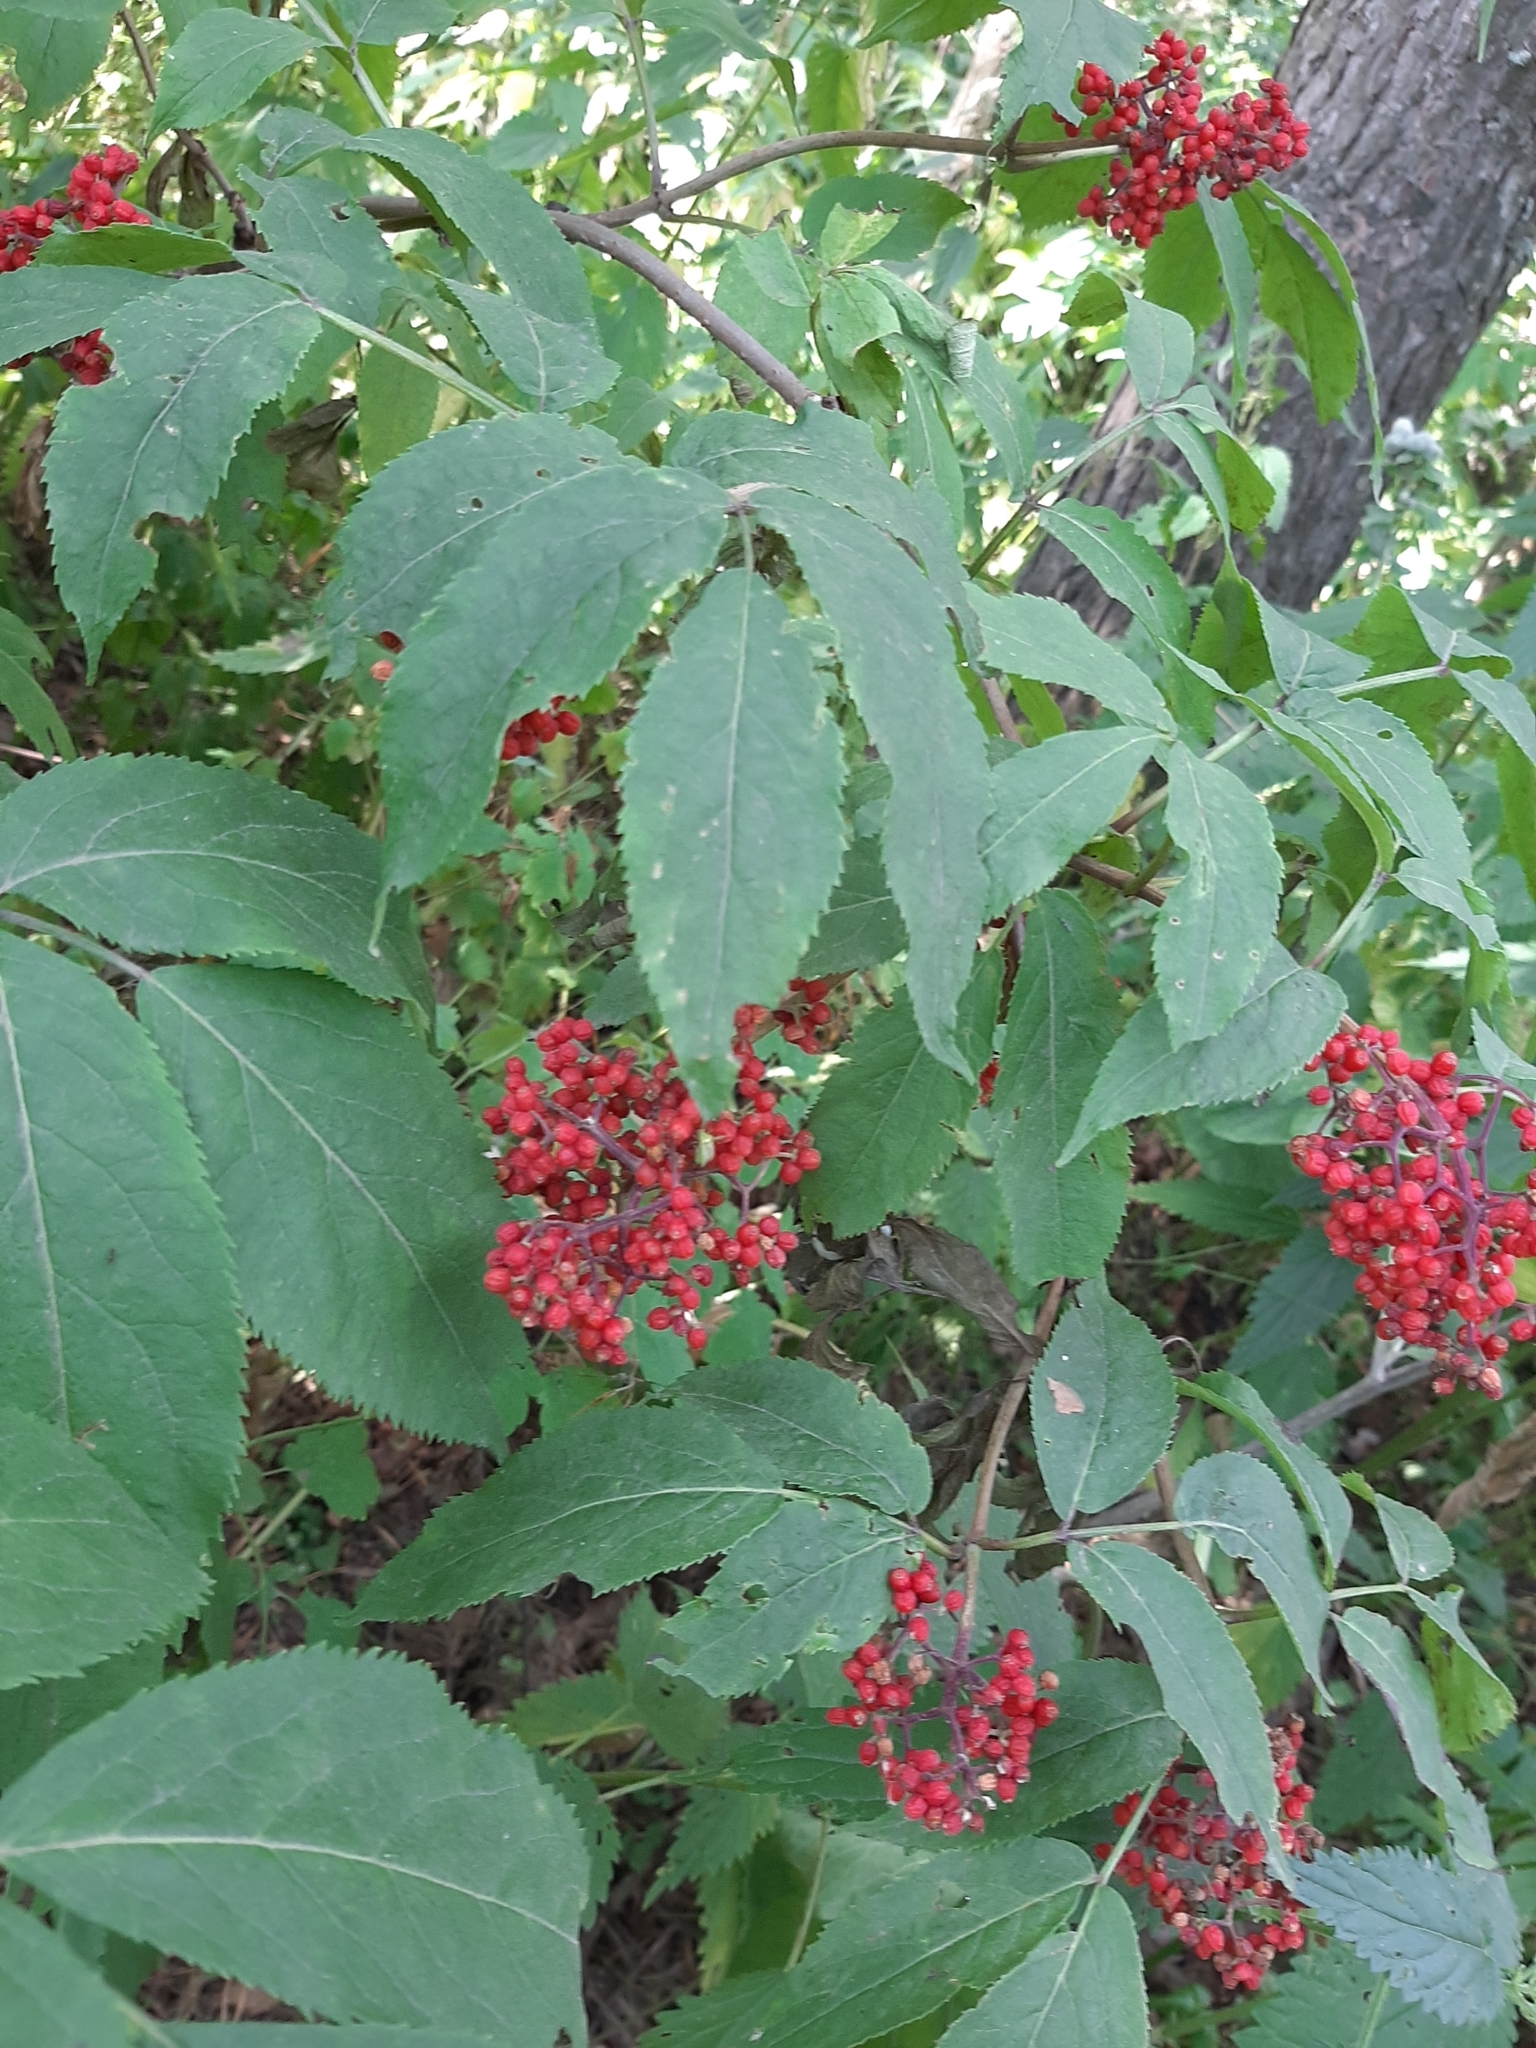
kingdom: Plantae
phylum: Tracheophyta
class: Magnoliopsida
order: Dipsacales
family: Viburnaceae
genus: Sambucus
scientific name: Sambucus racemosa
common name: Red-berried elder
